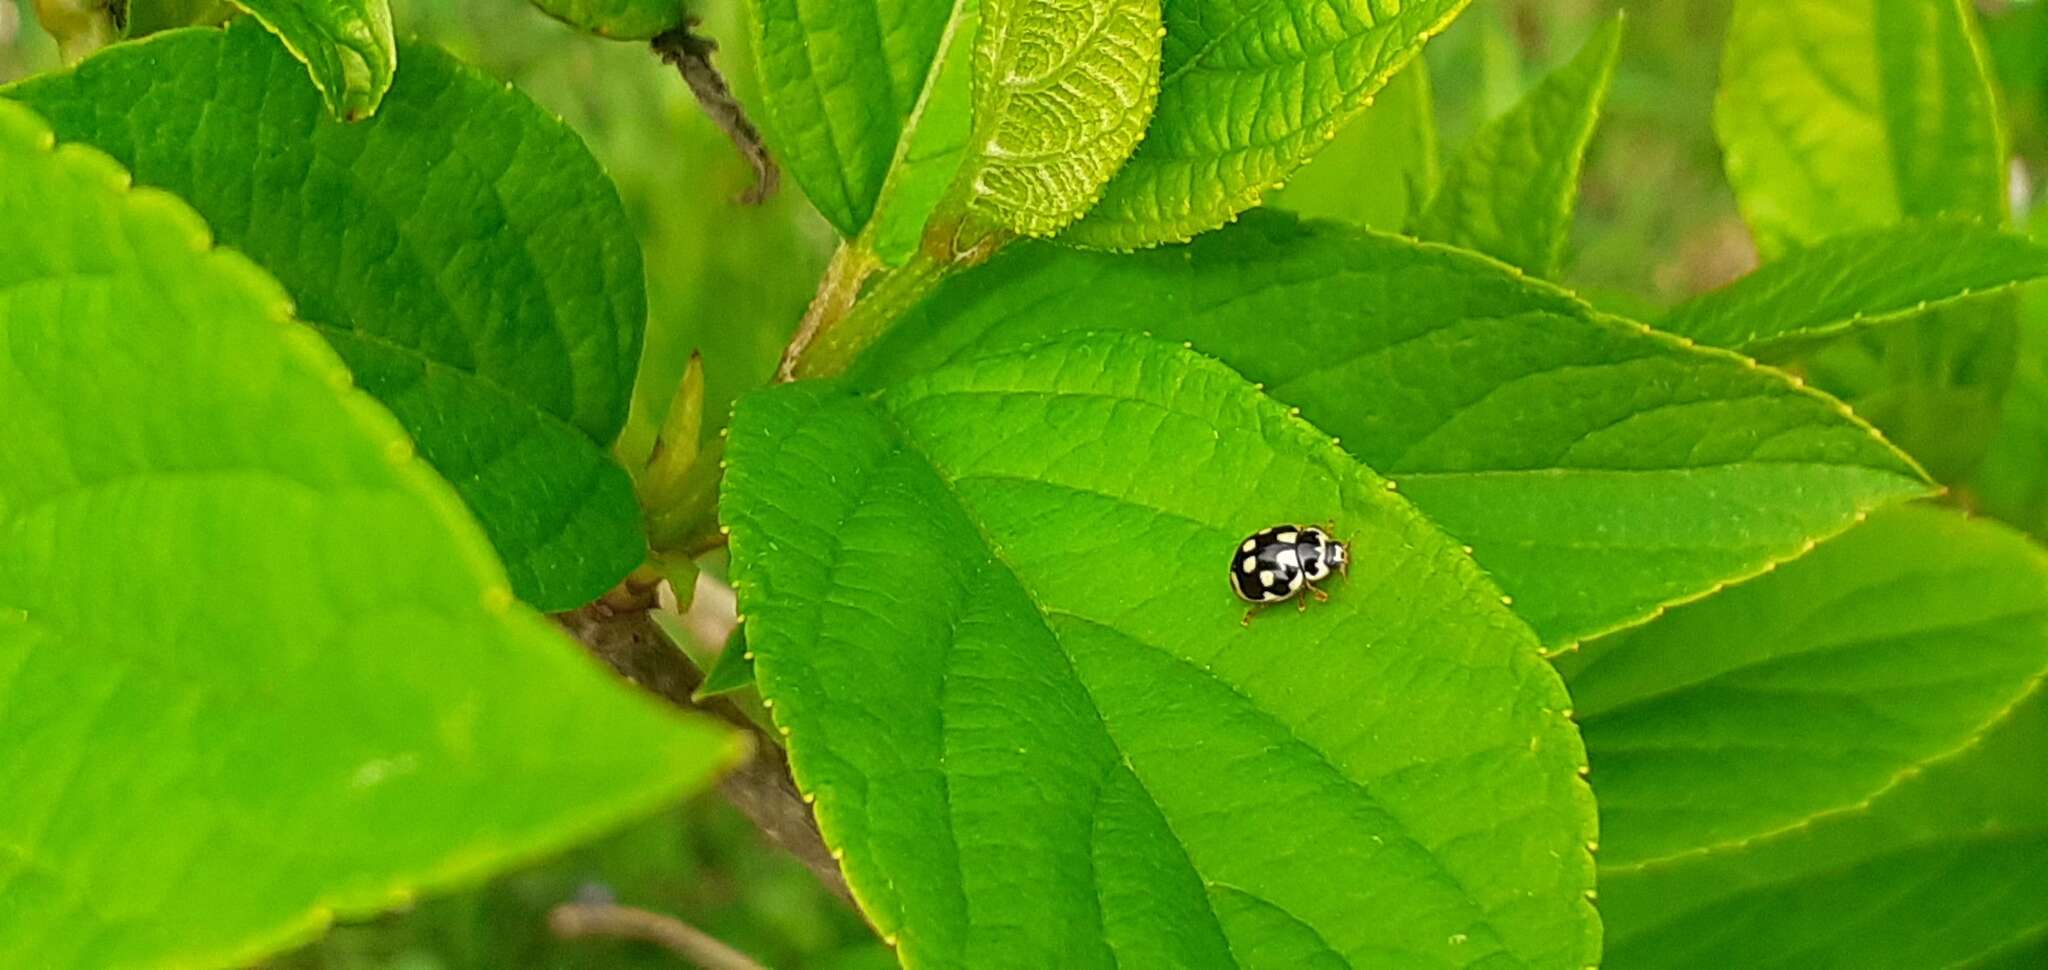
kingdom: Animalia
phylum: Arthropoda
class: Insecta
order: Coleoptera
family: Coccinellidae
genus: Propylaea
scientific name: Propylaea quatuordecimpunctata
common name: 14-spotted ladybird beetle
